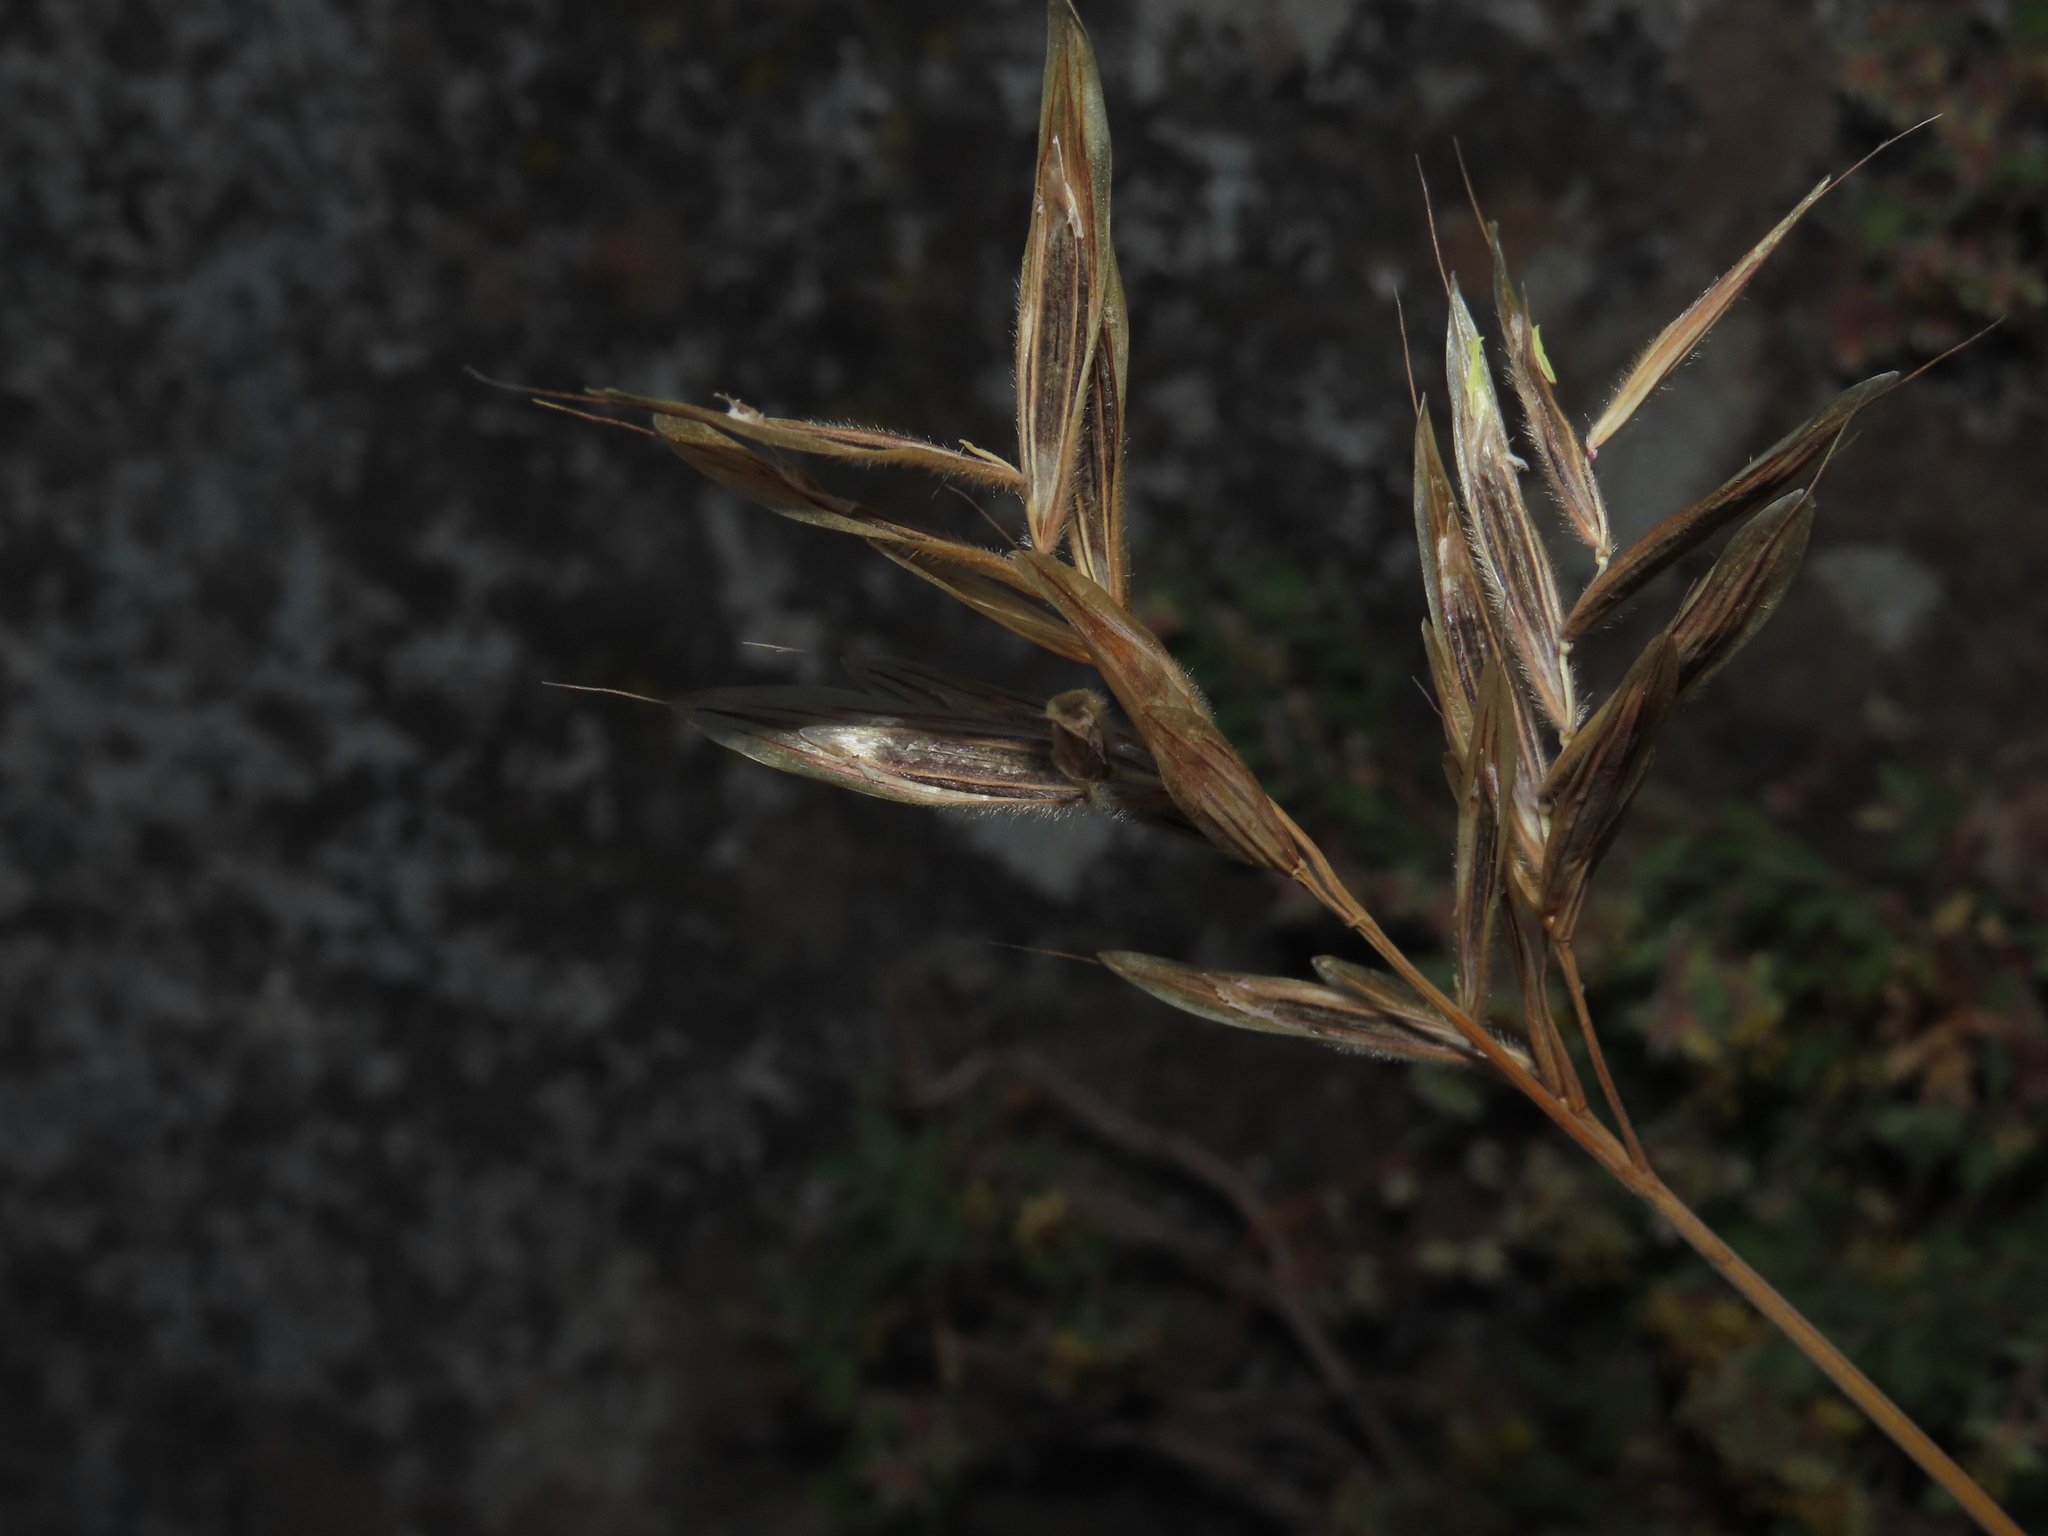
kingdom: Plantae
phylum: Tracheophyta
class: Liliopsida
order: Poales
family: Poaceae
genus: Bromus
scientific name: Bromus setifolius
